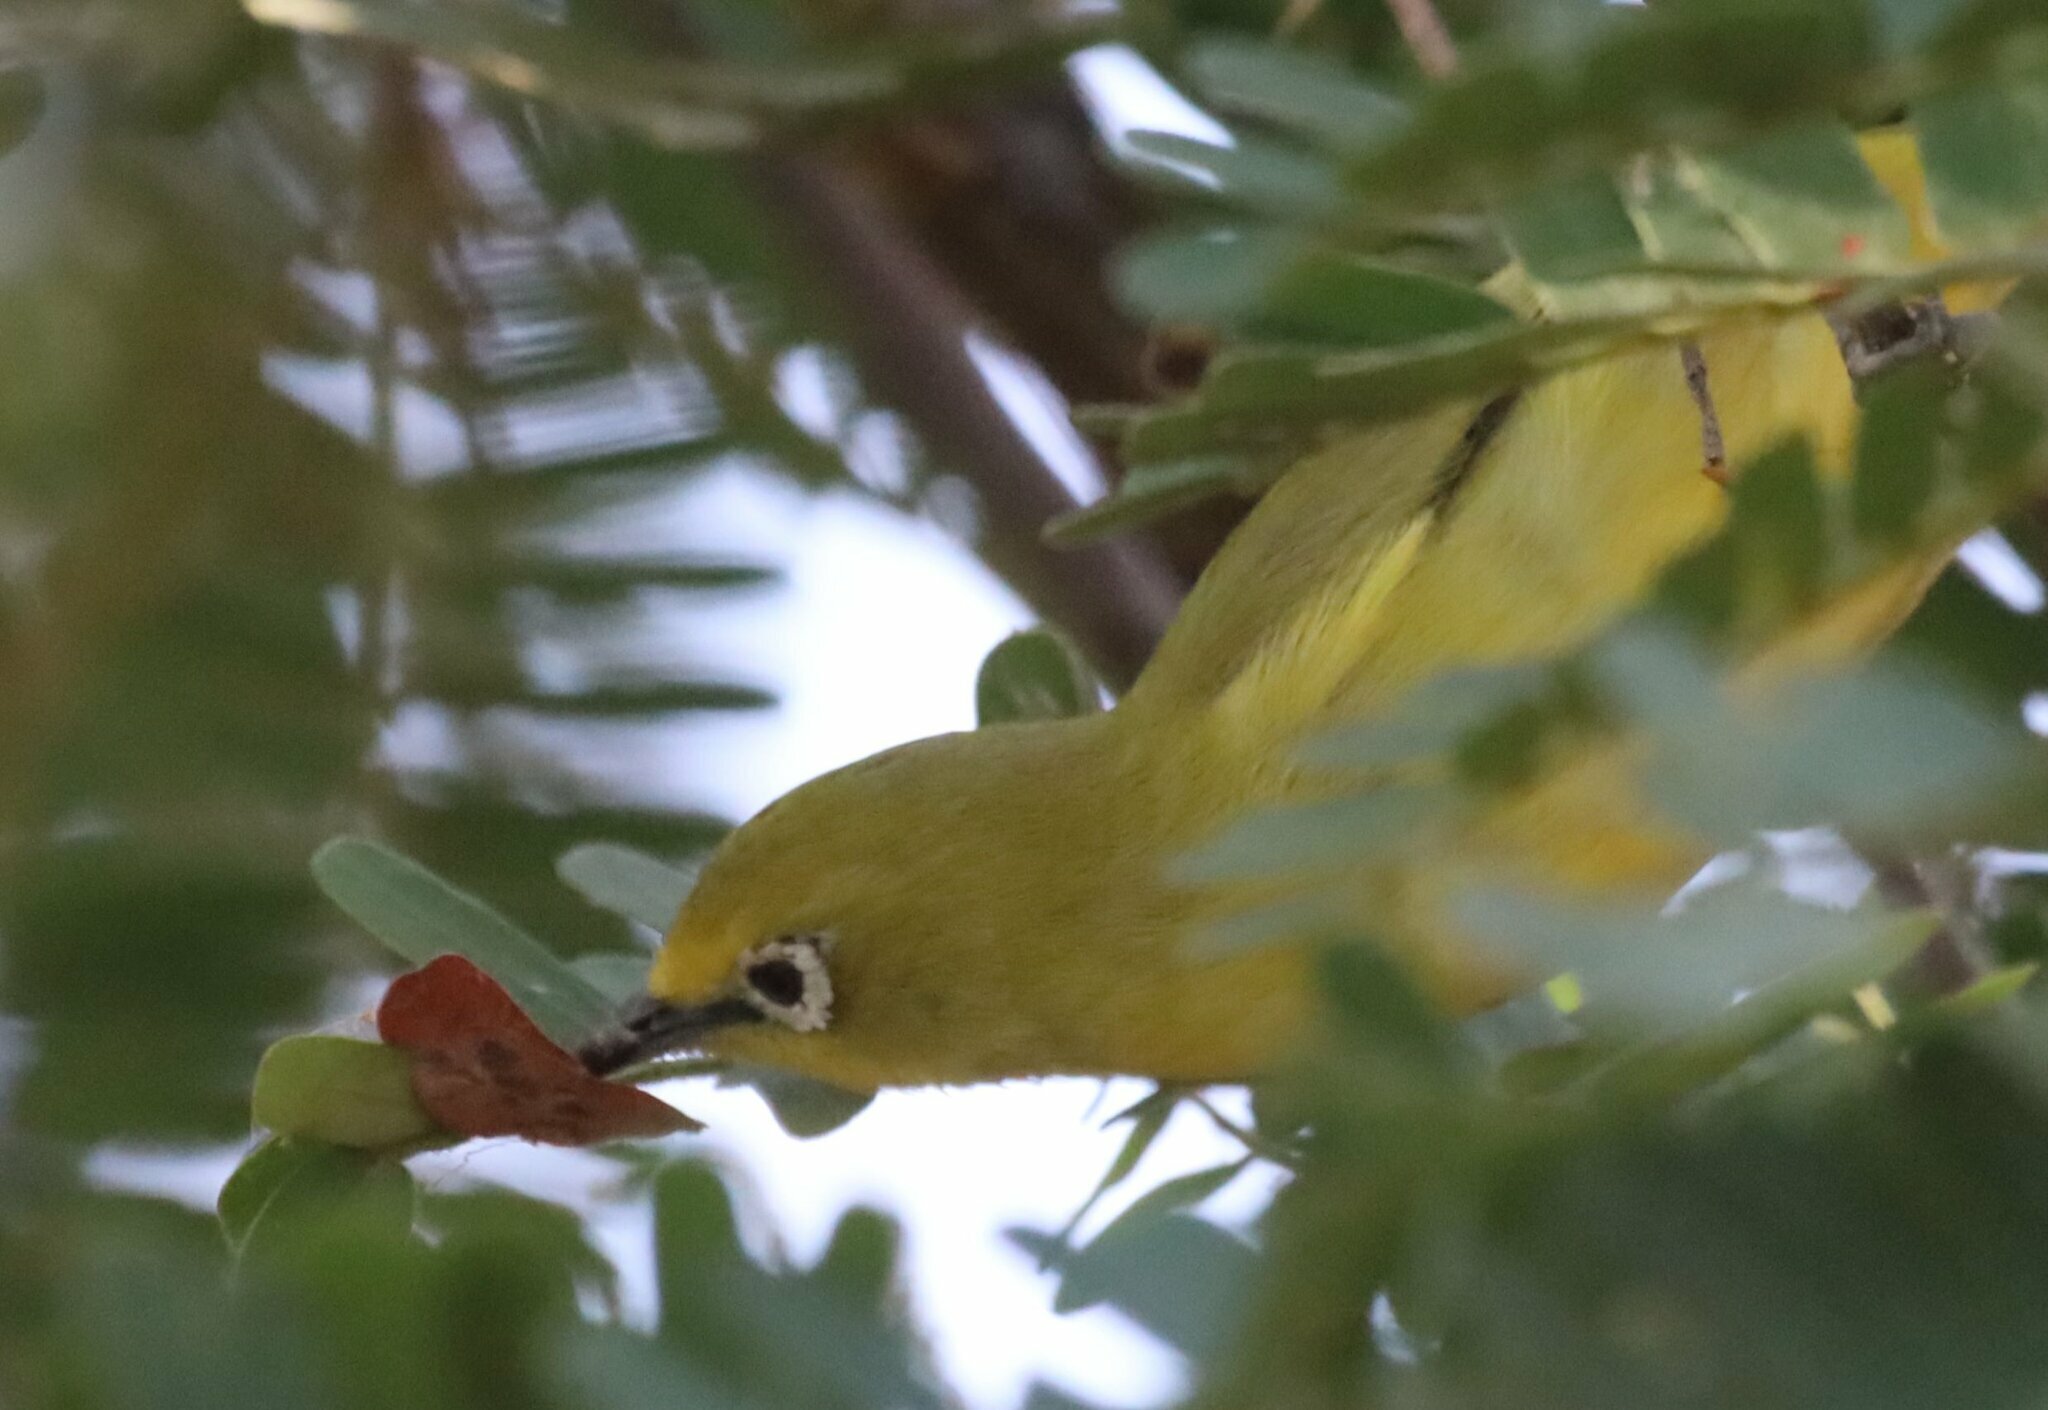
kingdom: Animalia
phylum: Chordata
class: Aves
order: Passeriformes
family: Zosteropidae
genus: Zosterops
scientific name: Zosterops anderssoni
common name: Southern yellow white-eye
